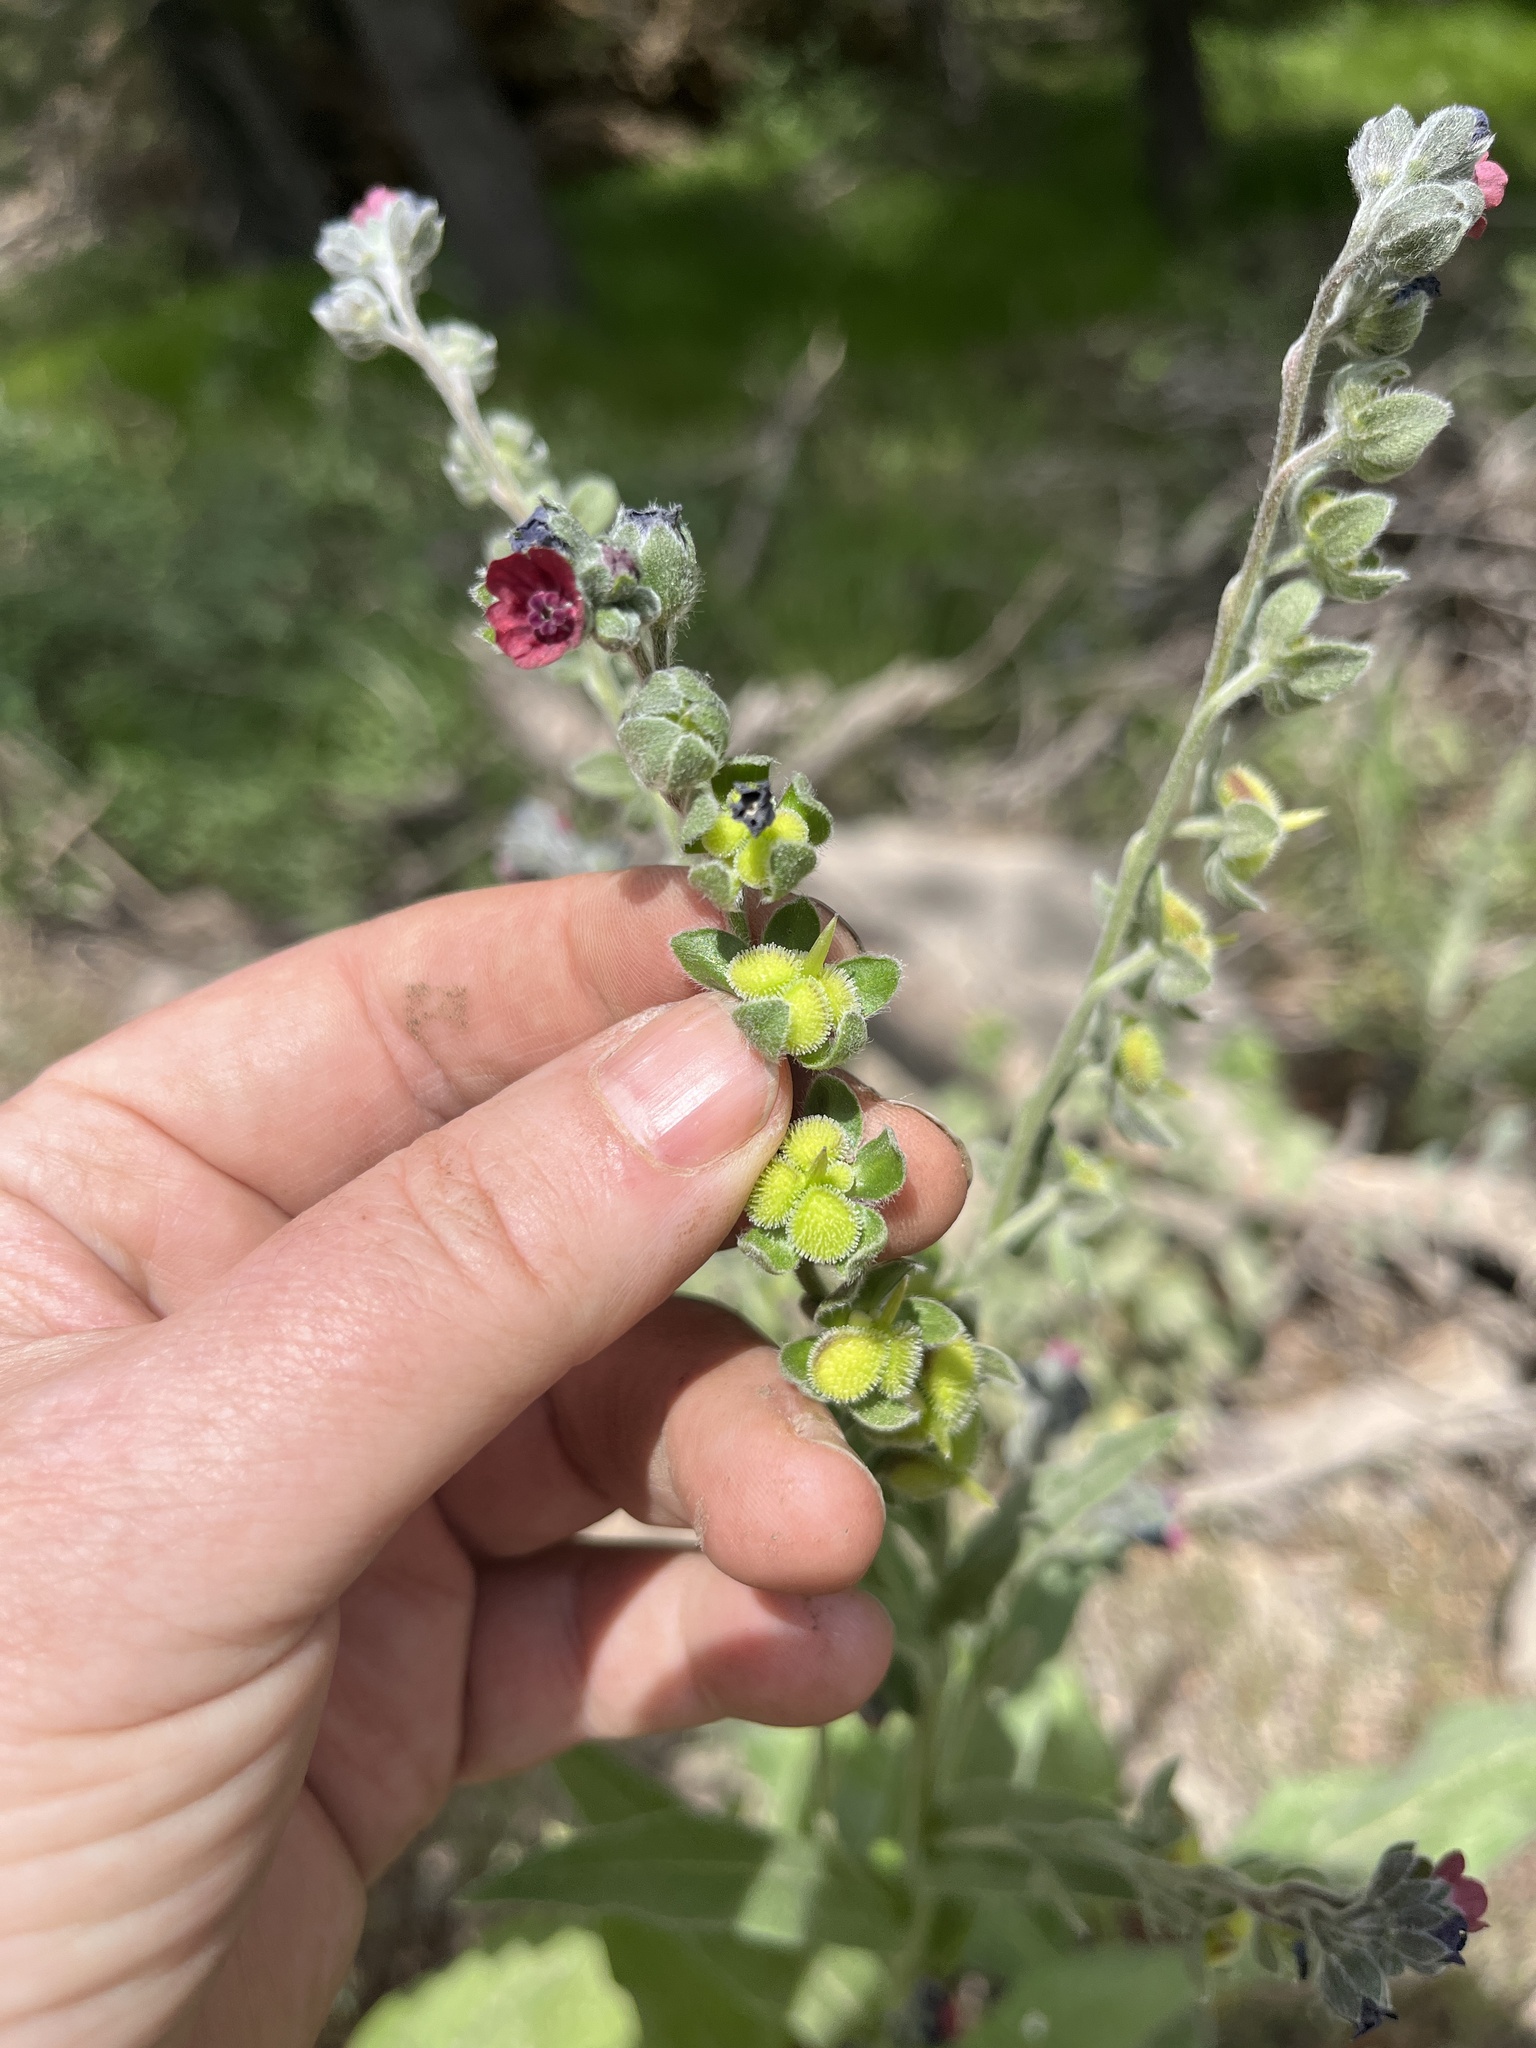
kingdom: Plantae
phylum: Tracheophyta
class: Magnoliopsida
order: Boraginales
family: Boraginaceae
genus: Cynoglossum
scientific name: Cynoglossum officinale
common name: Hound's-tongue
